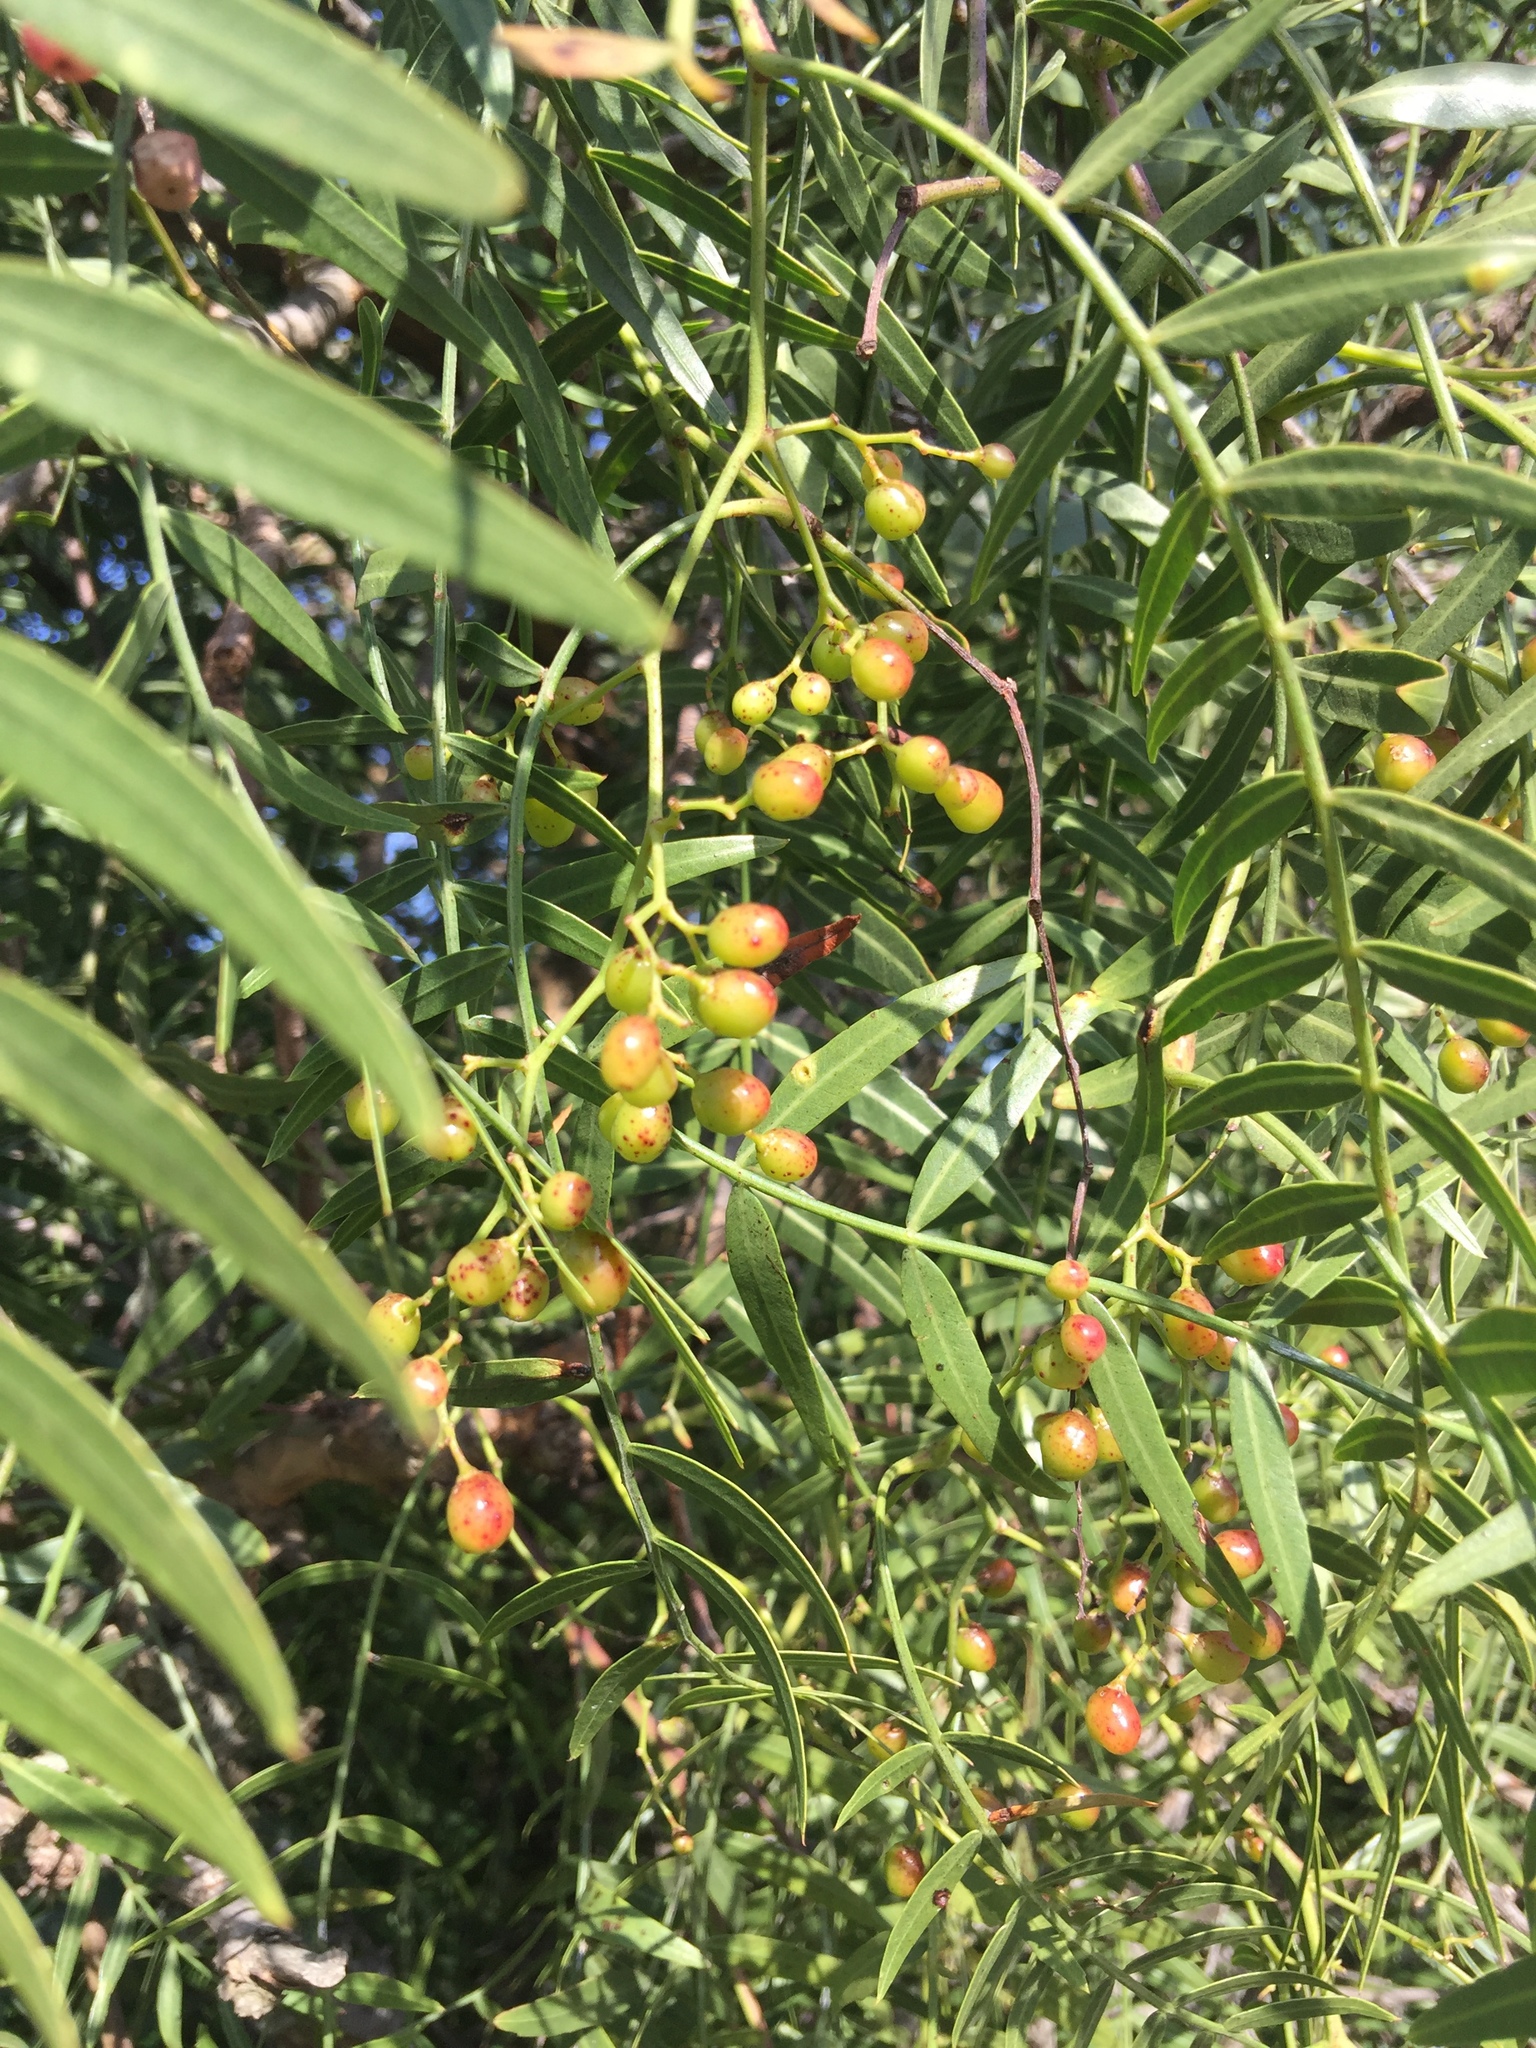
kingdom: Plantae
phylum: Tracheophyta
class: Magnoliopsida
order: Sapindales
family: Anacardiaceae
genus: Schinus
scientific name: Schinus molle
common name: Peruvian peppertree
